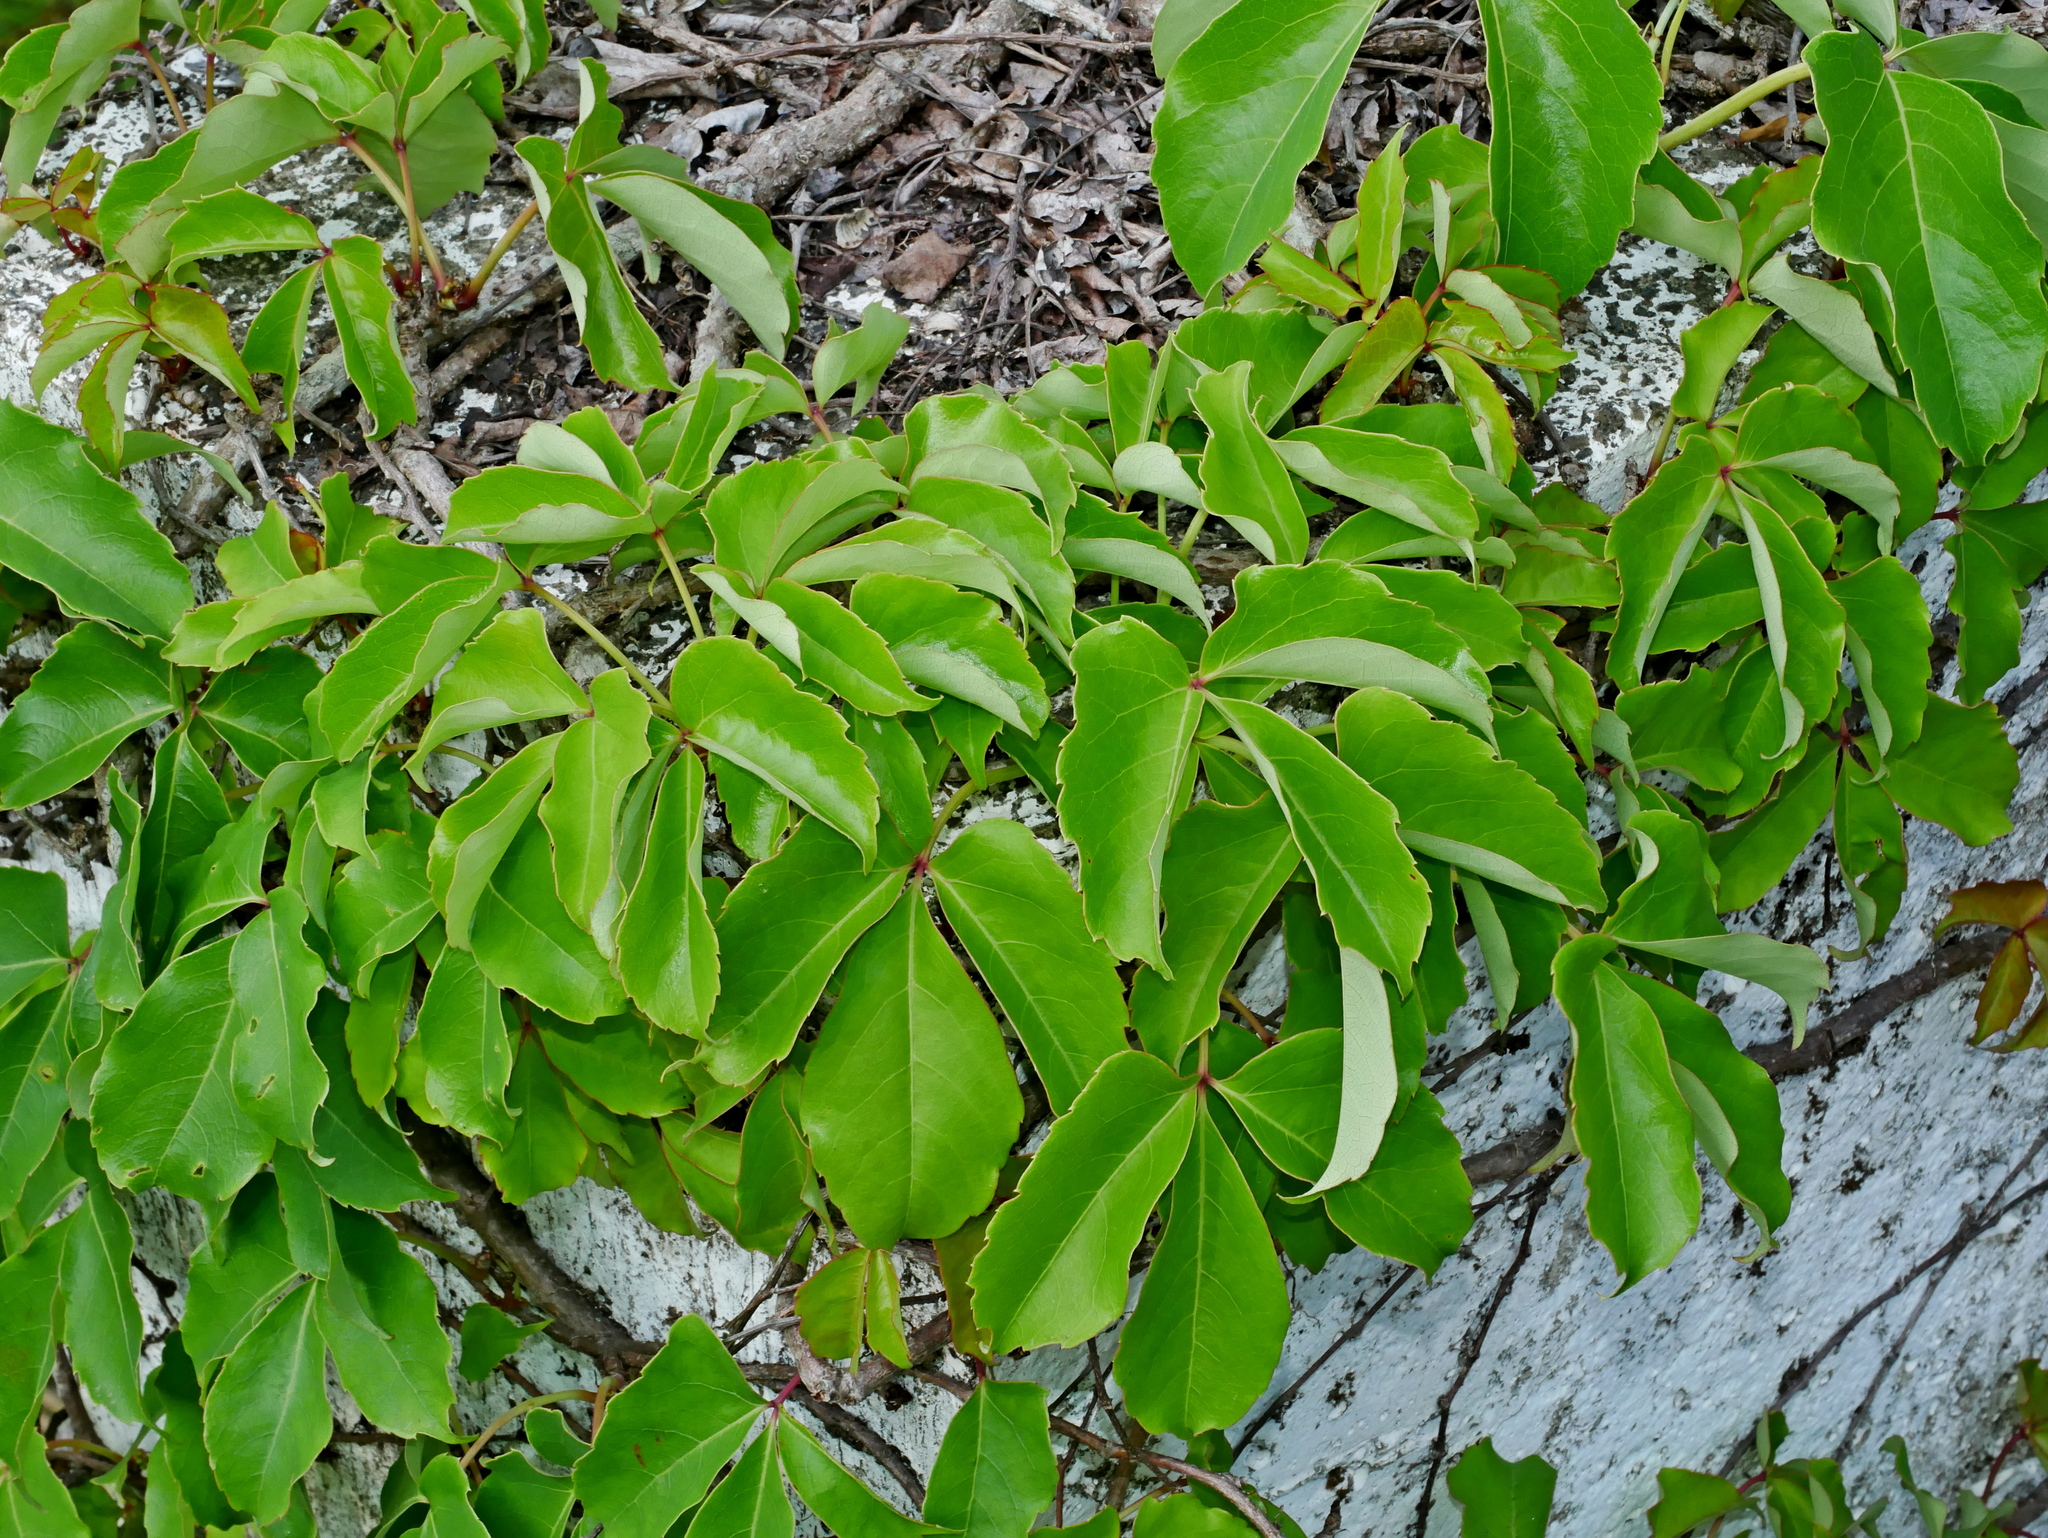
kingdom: Plantae
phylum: Tracheophyta
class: Magnoliopsida
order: Vitales
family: Vitaceae
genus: Parthenocissus
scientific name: Parthenocissus tricuspidata
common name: Boston ivy
